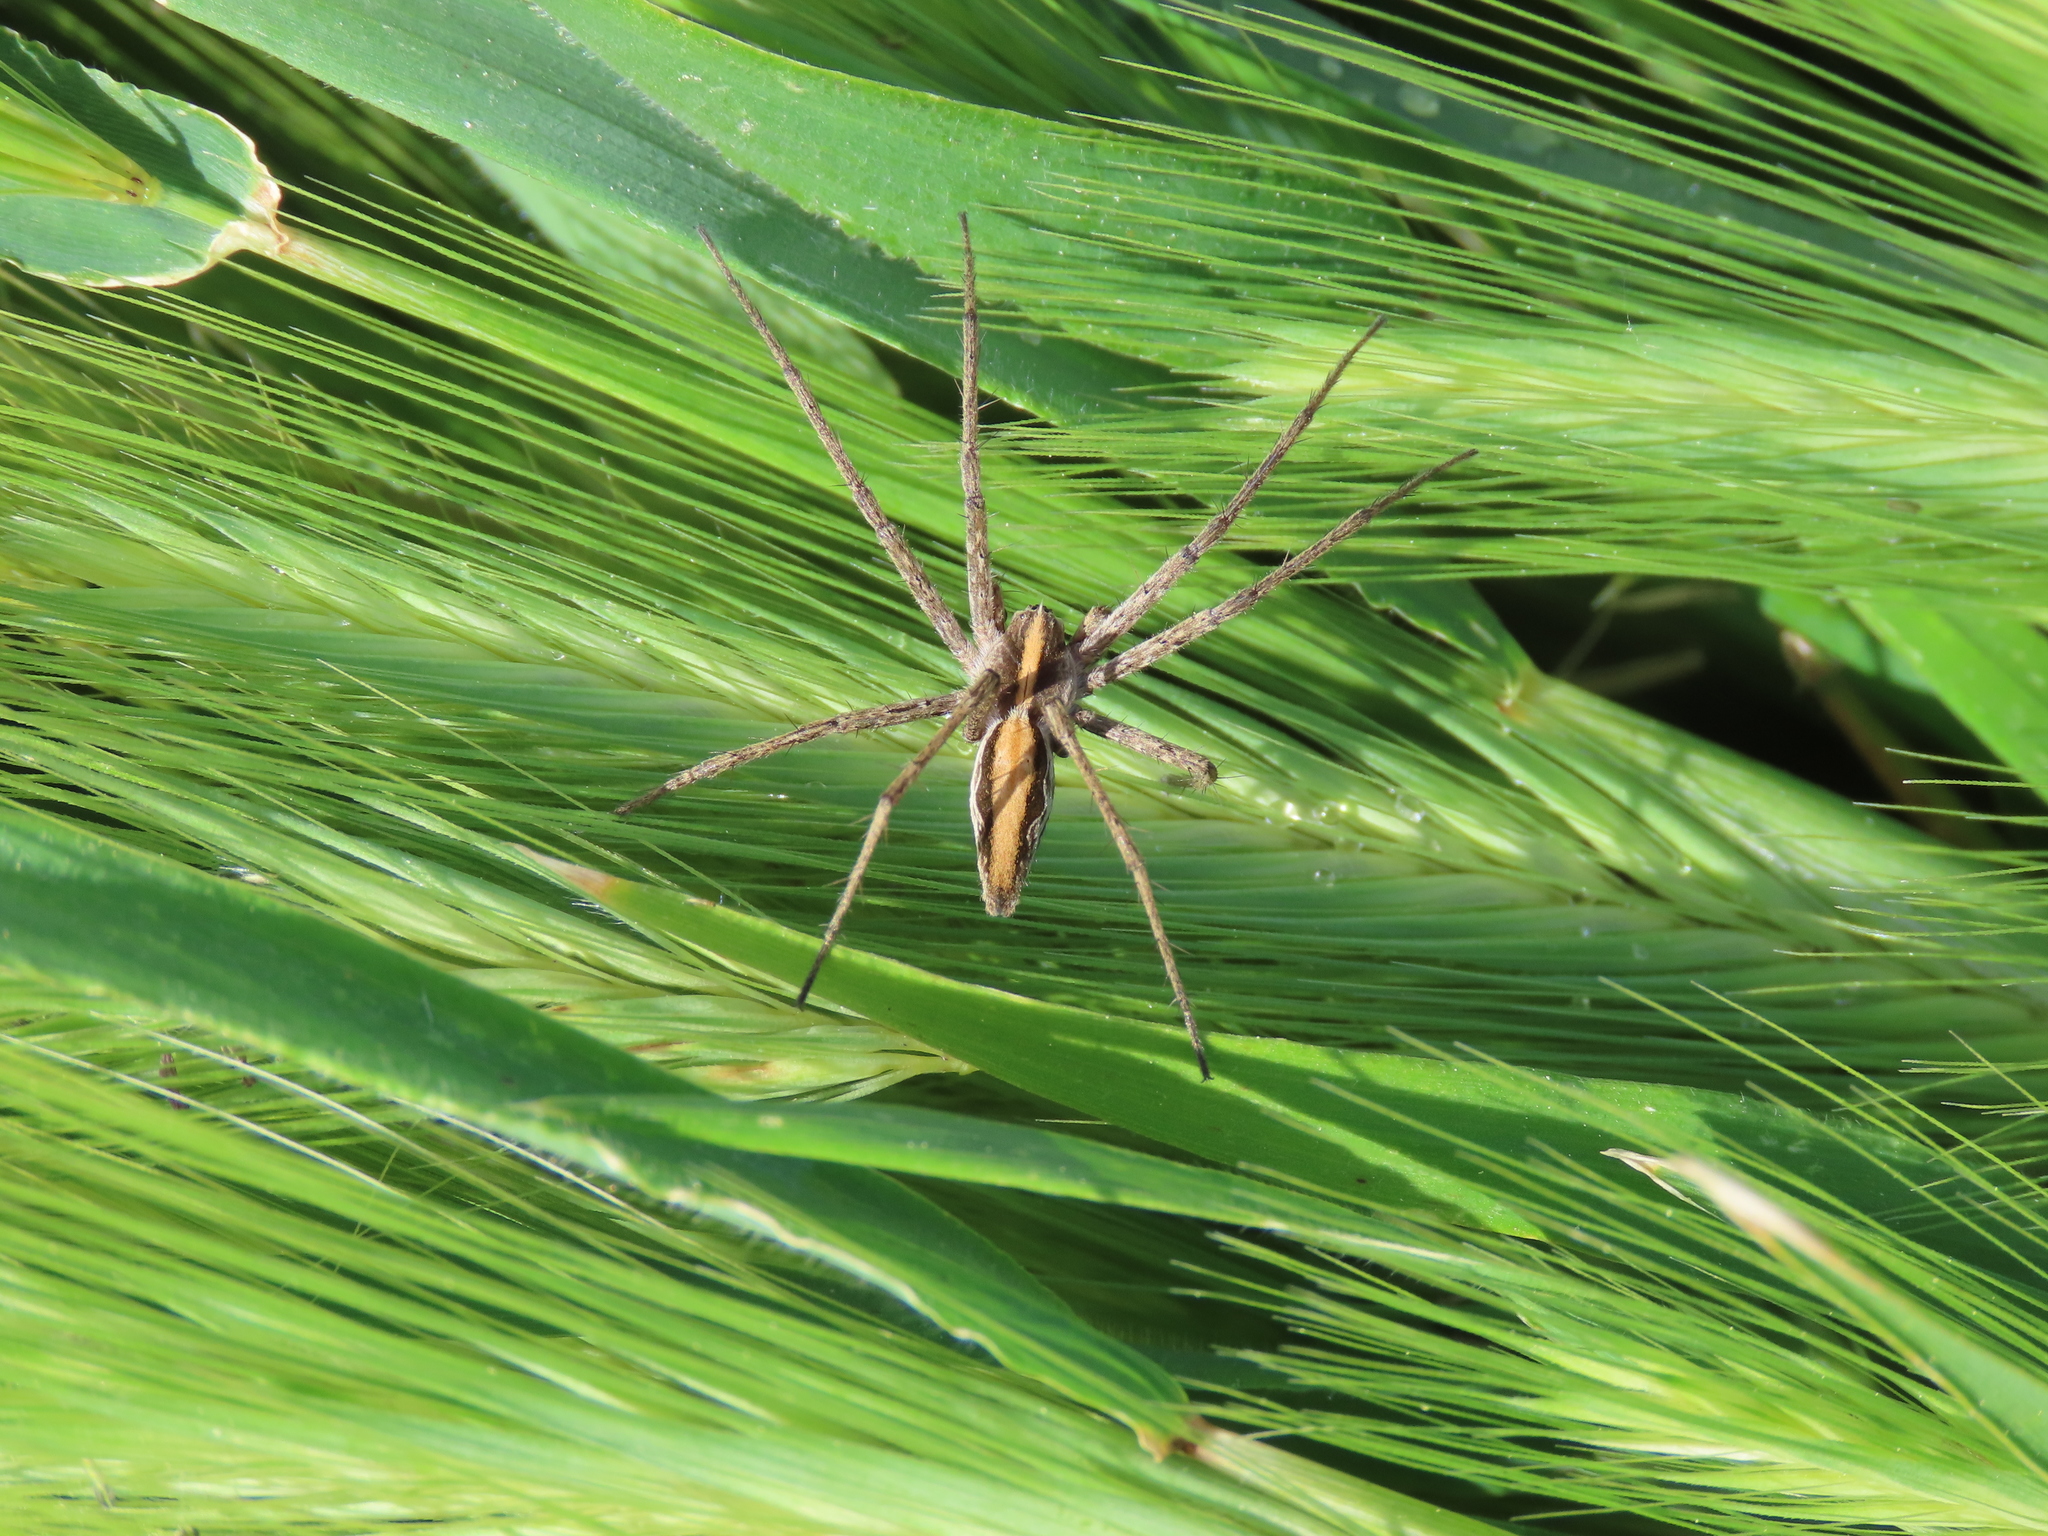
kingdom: Animalia
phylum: Arthropoda
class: Arachnida
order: Araneae
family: Pisauridae
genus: Pisaura
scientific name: Pisaura mirabilis
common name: Tent spider
